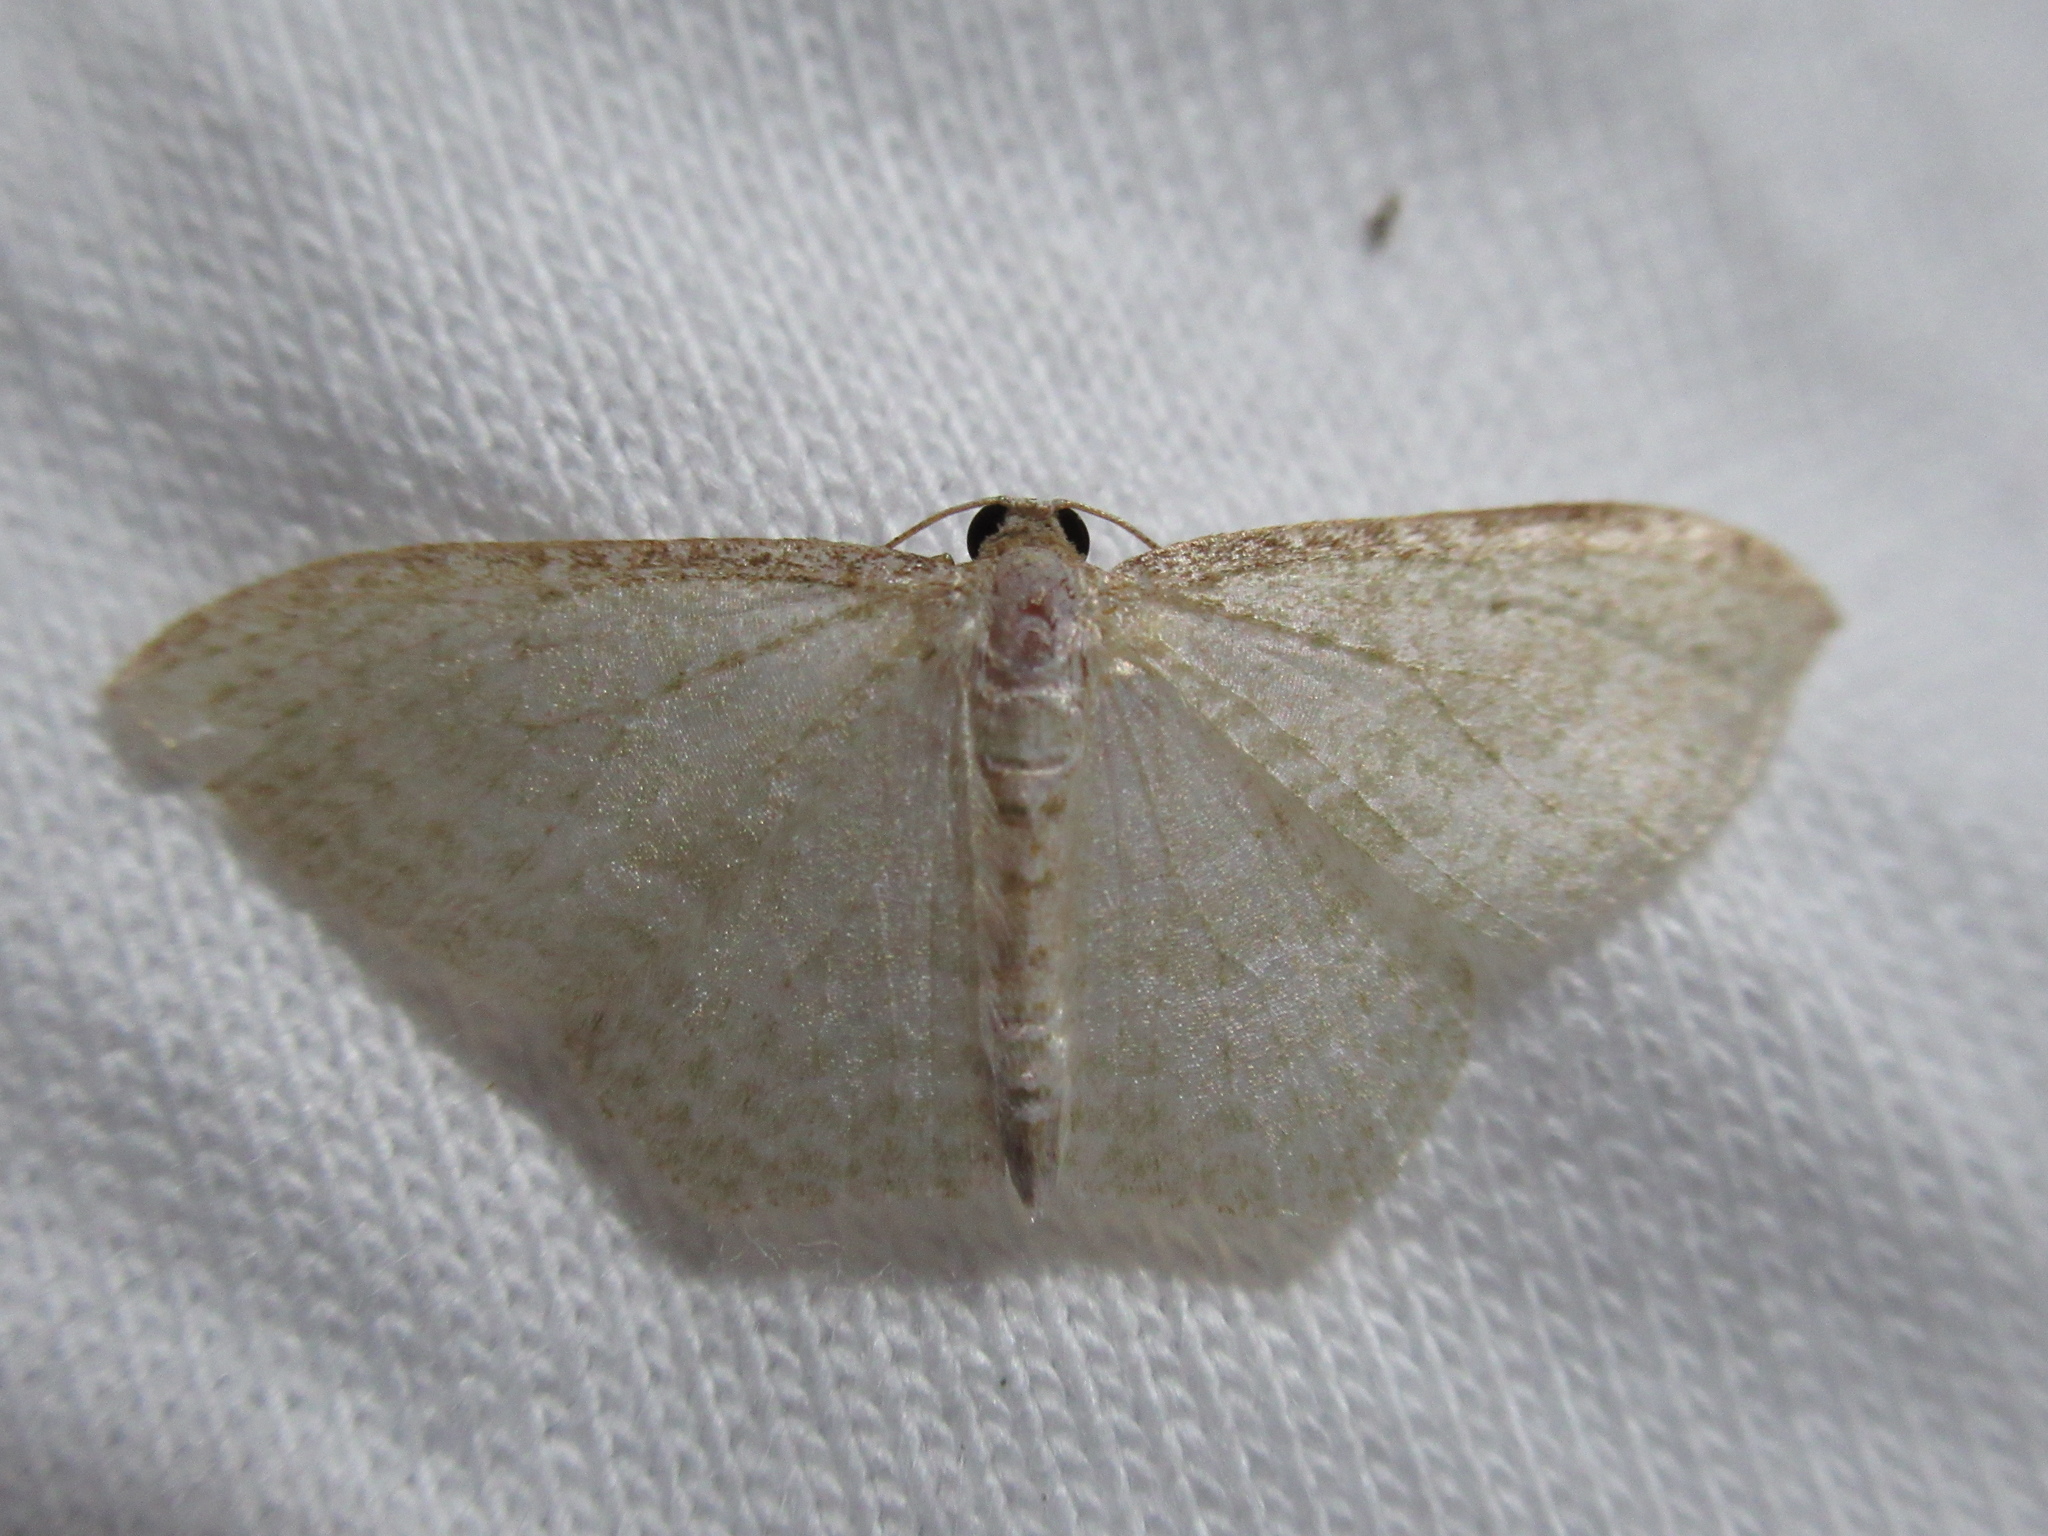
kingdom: Animalia
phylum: Arthropoda
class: Insecta
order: Lepidoptera
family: Geometridae
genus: Poecilasthena
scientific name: Poecilasthena pulchraria
